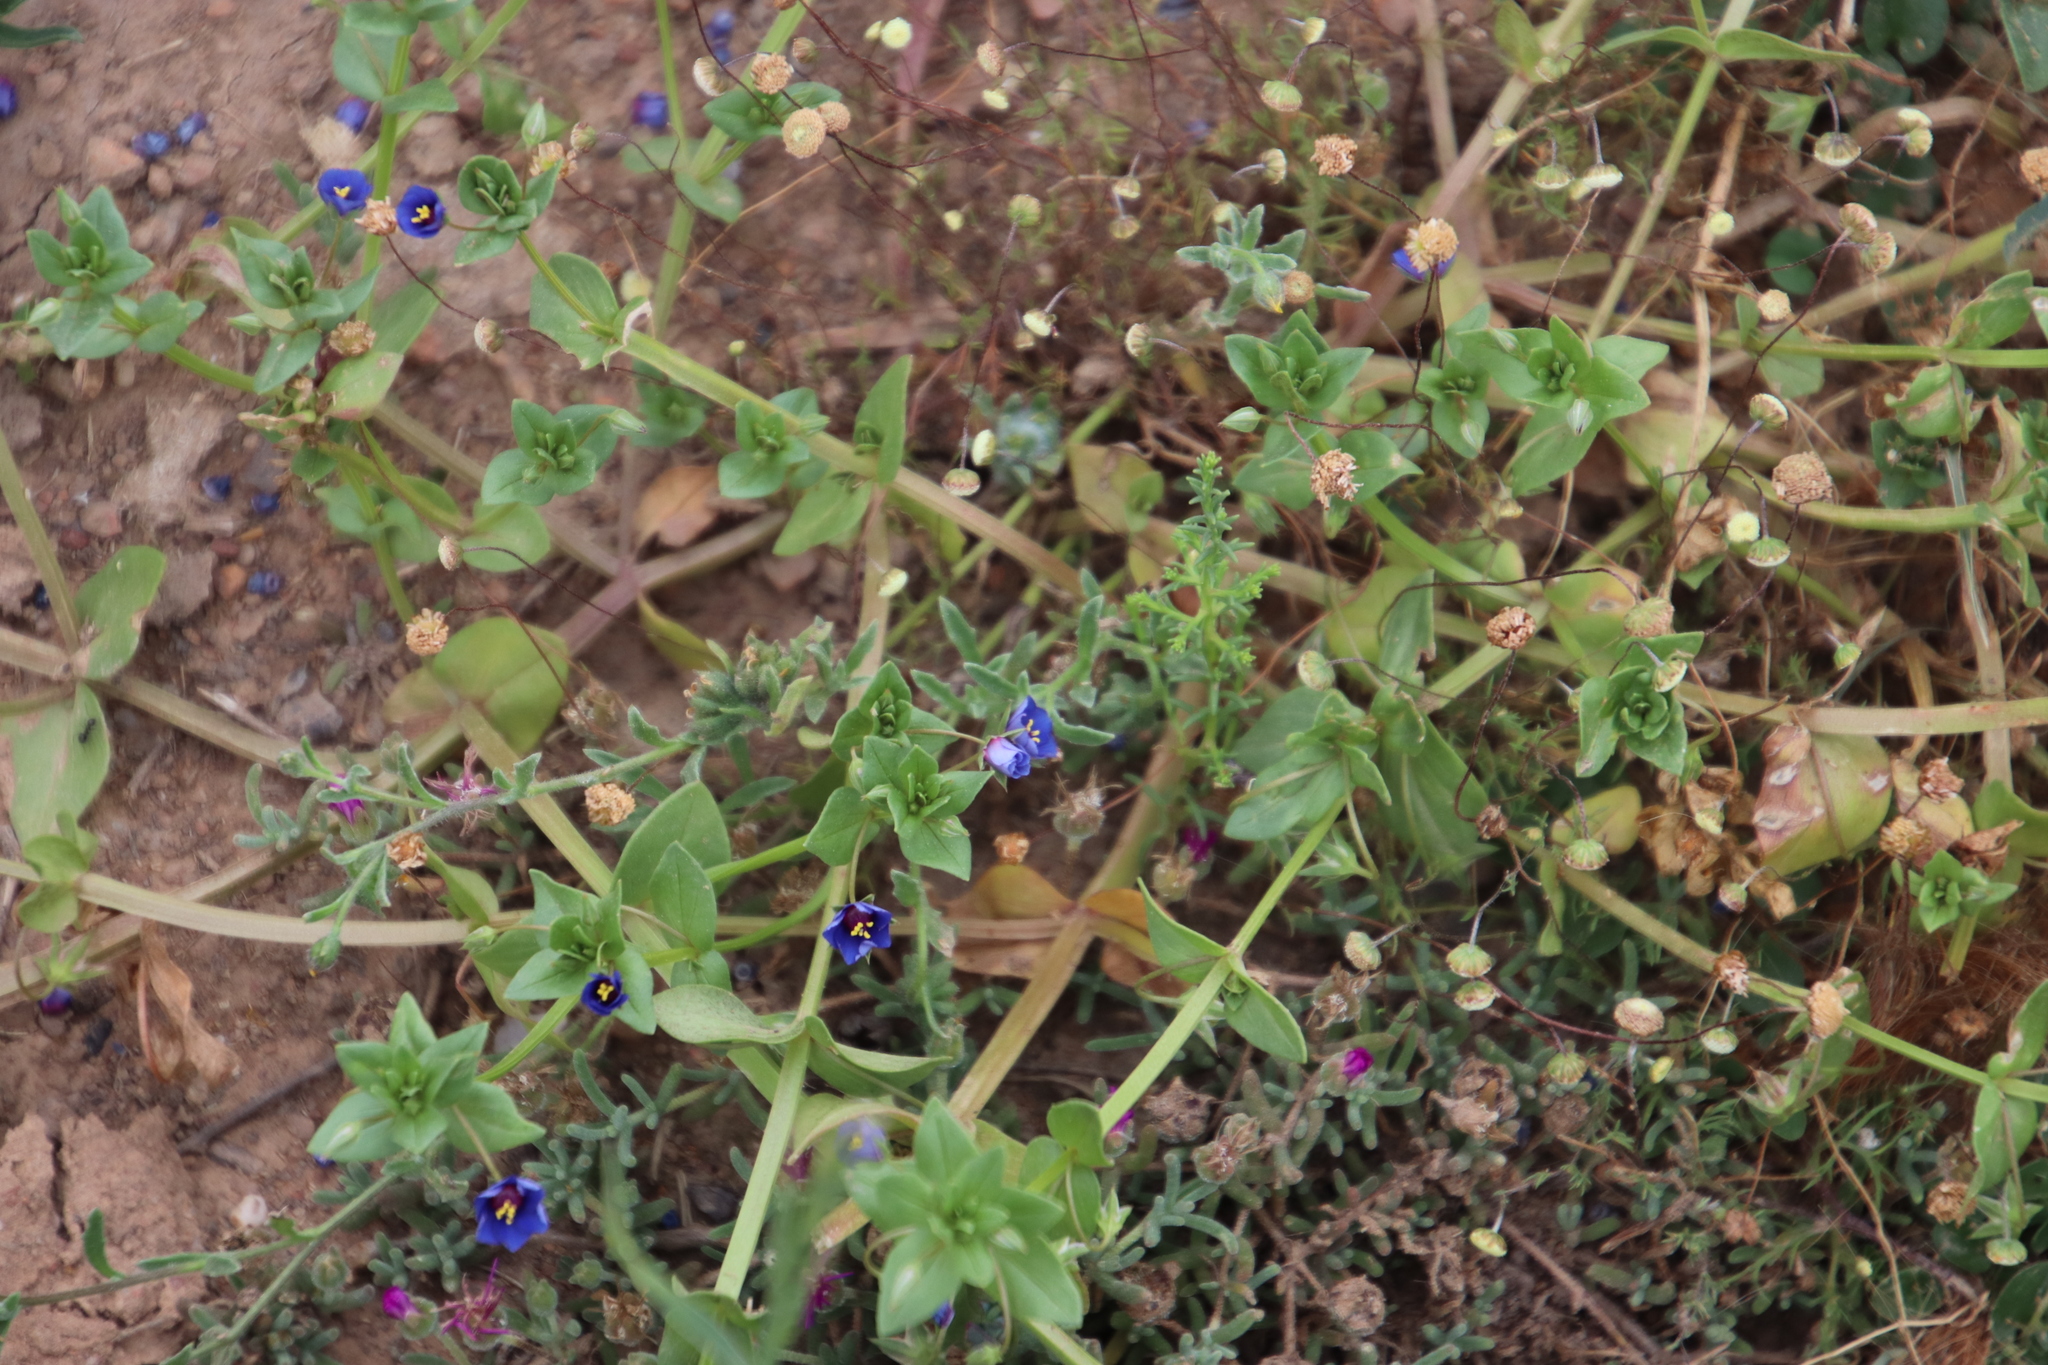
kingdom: Plantae
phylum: Tracheophyta
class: Magnoliopsida
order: Ericales
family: Primulaceae
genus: Lysimachia
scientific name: Lysimachia loeflingii
